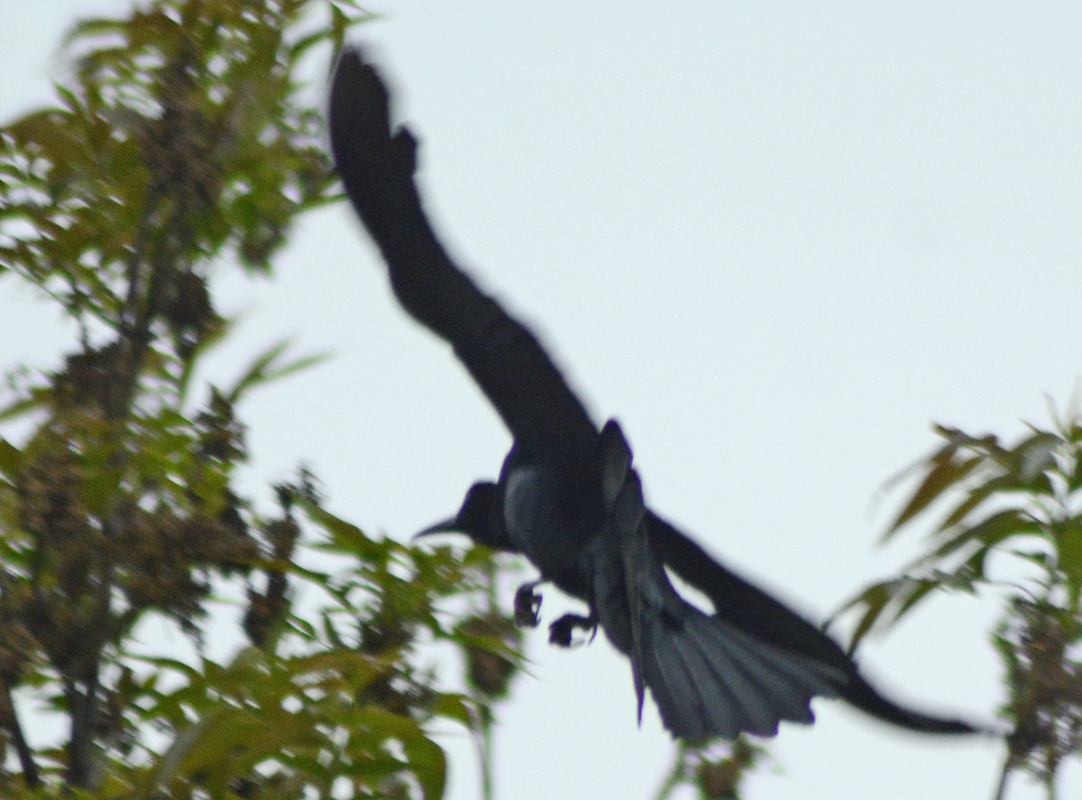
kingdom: Animalia
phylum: Chordata
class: Aves
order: Passeriformes
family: Icteridae
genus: Quiscalus
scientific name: Quiscalus mexicanus
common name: Great-tailed grackle
